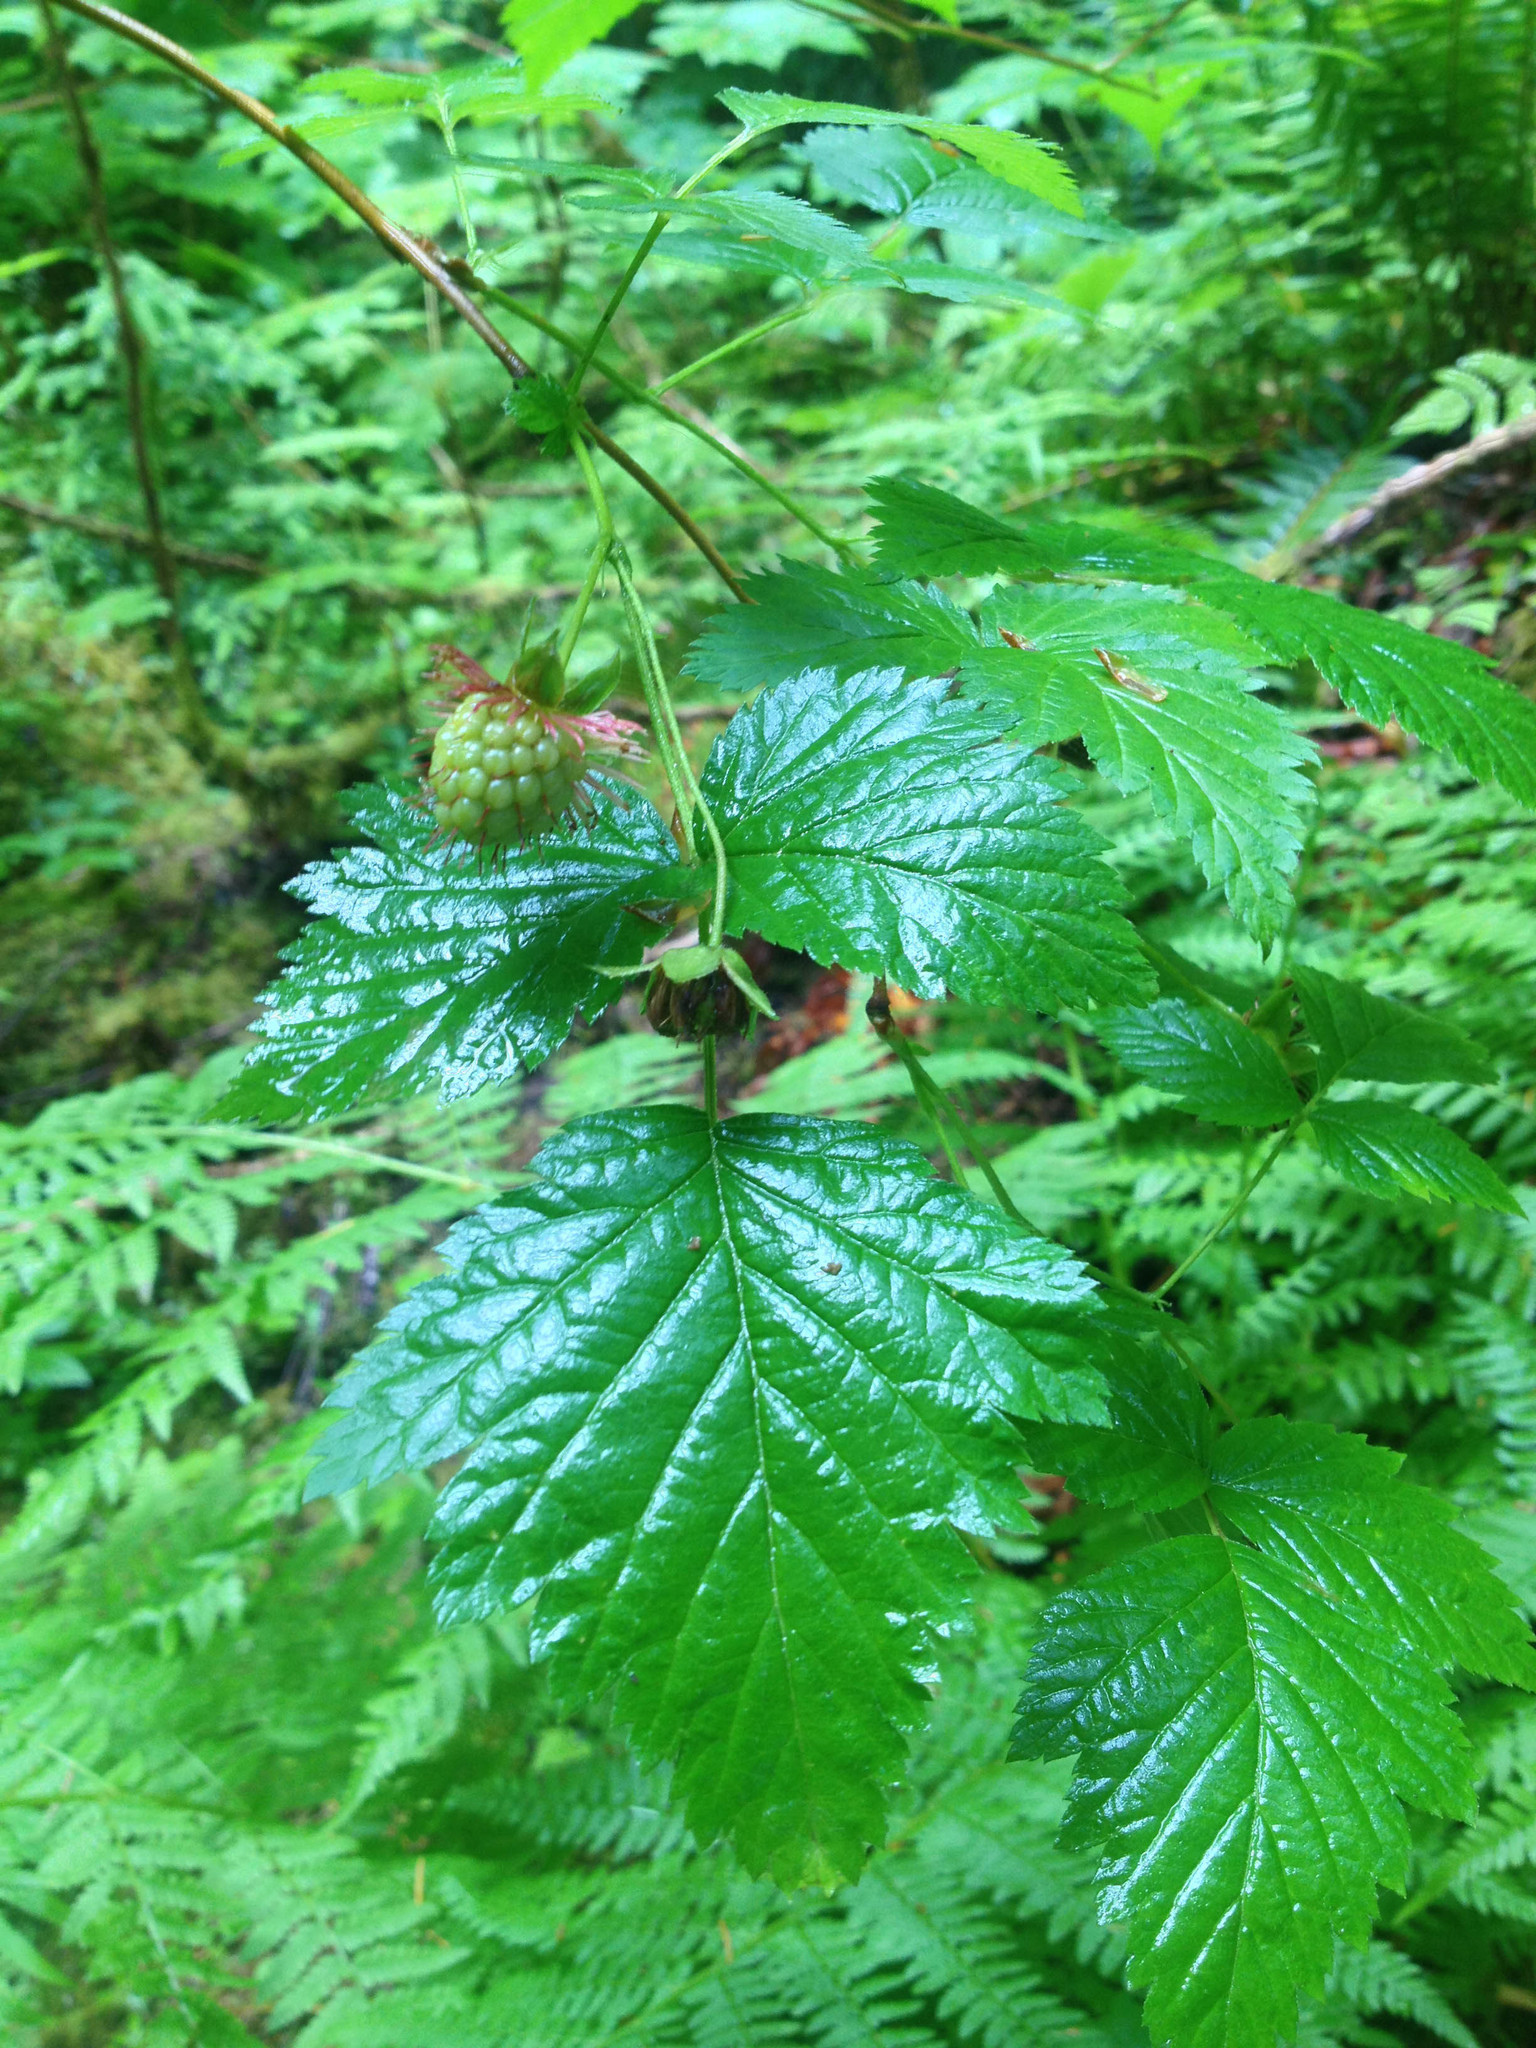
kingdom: Plantae
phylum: Tracheophyta
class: Magnoliopsida
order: Rosales
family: Rosaceae
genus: Rubus
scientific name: Rubus spectabilis
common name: Salmonberry
